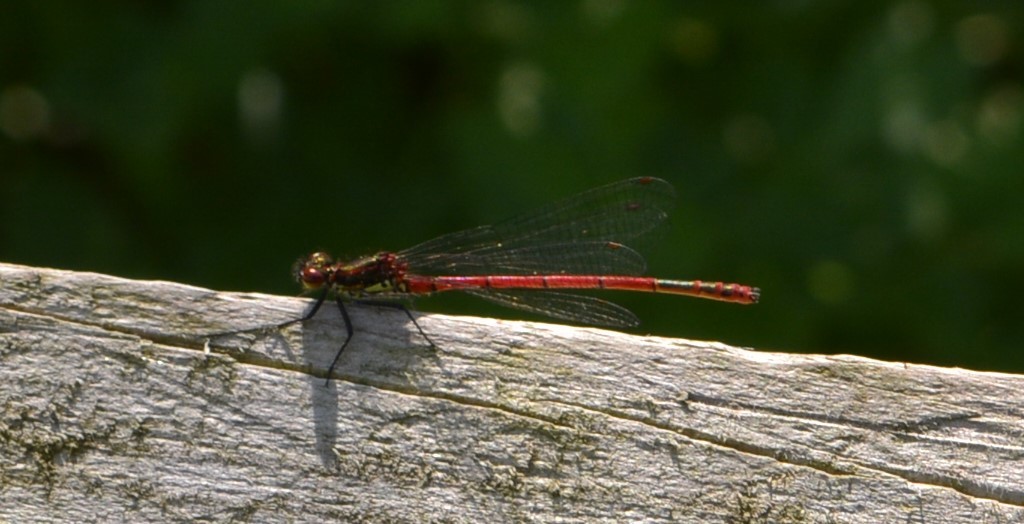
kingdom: Animalia
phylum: Arthropoda
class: Insecta
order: Odonata
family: Coenagrionidae
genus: Pyrrhosoma
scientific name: Pyrrhosoma nymphula
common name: Large red damsel
